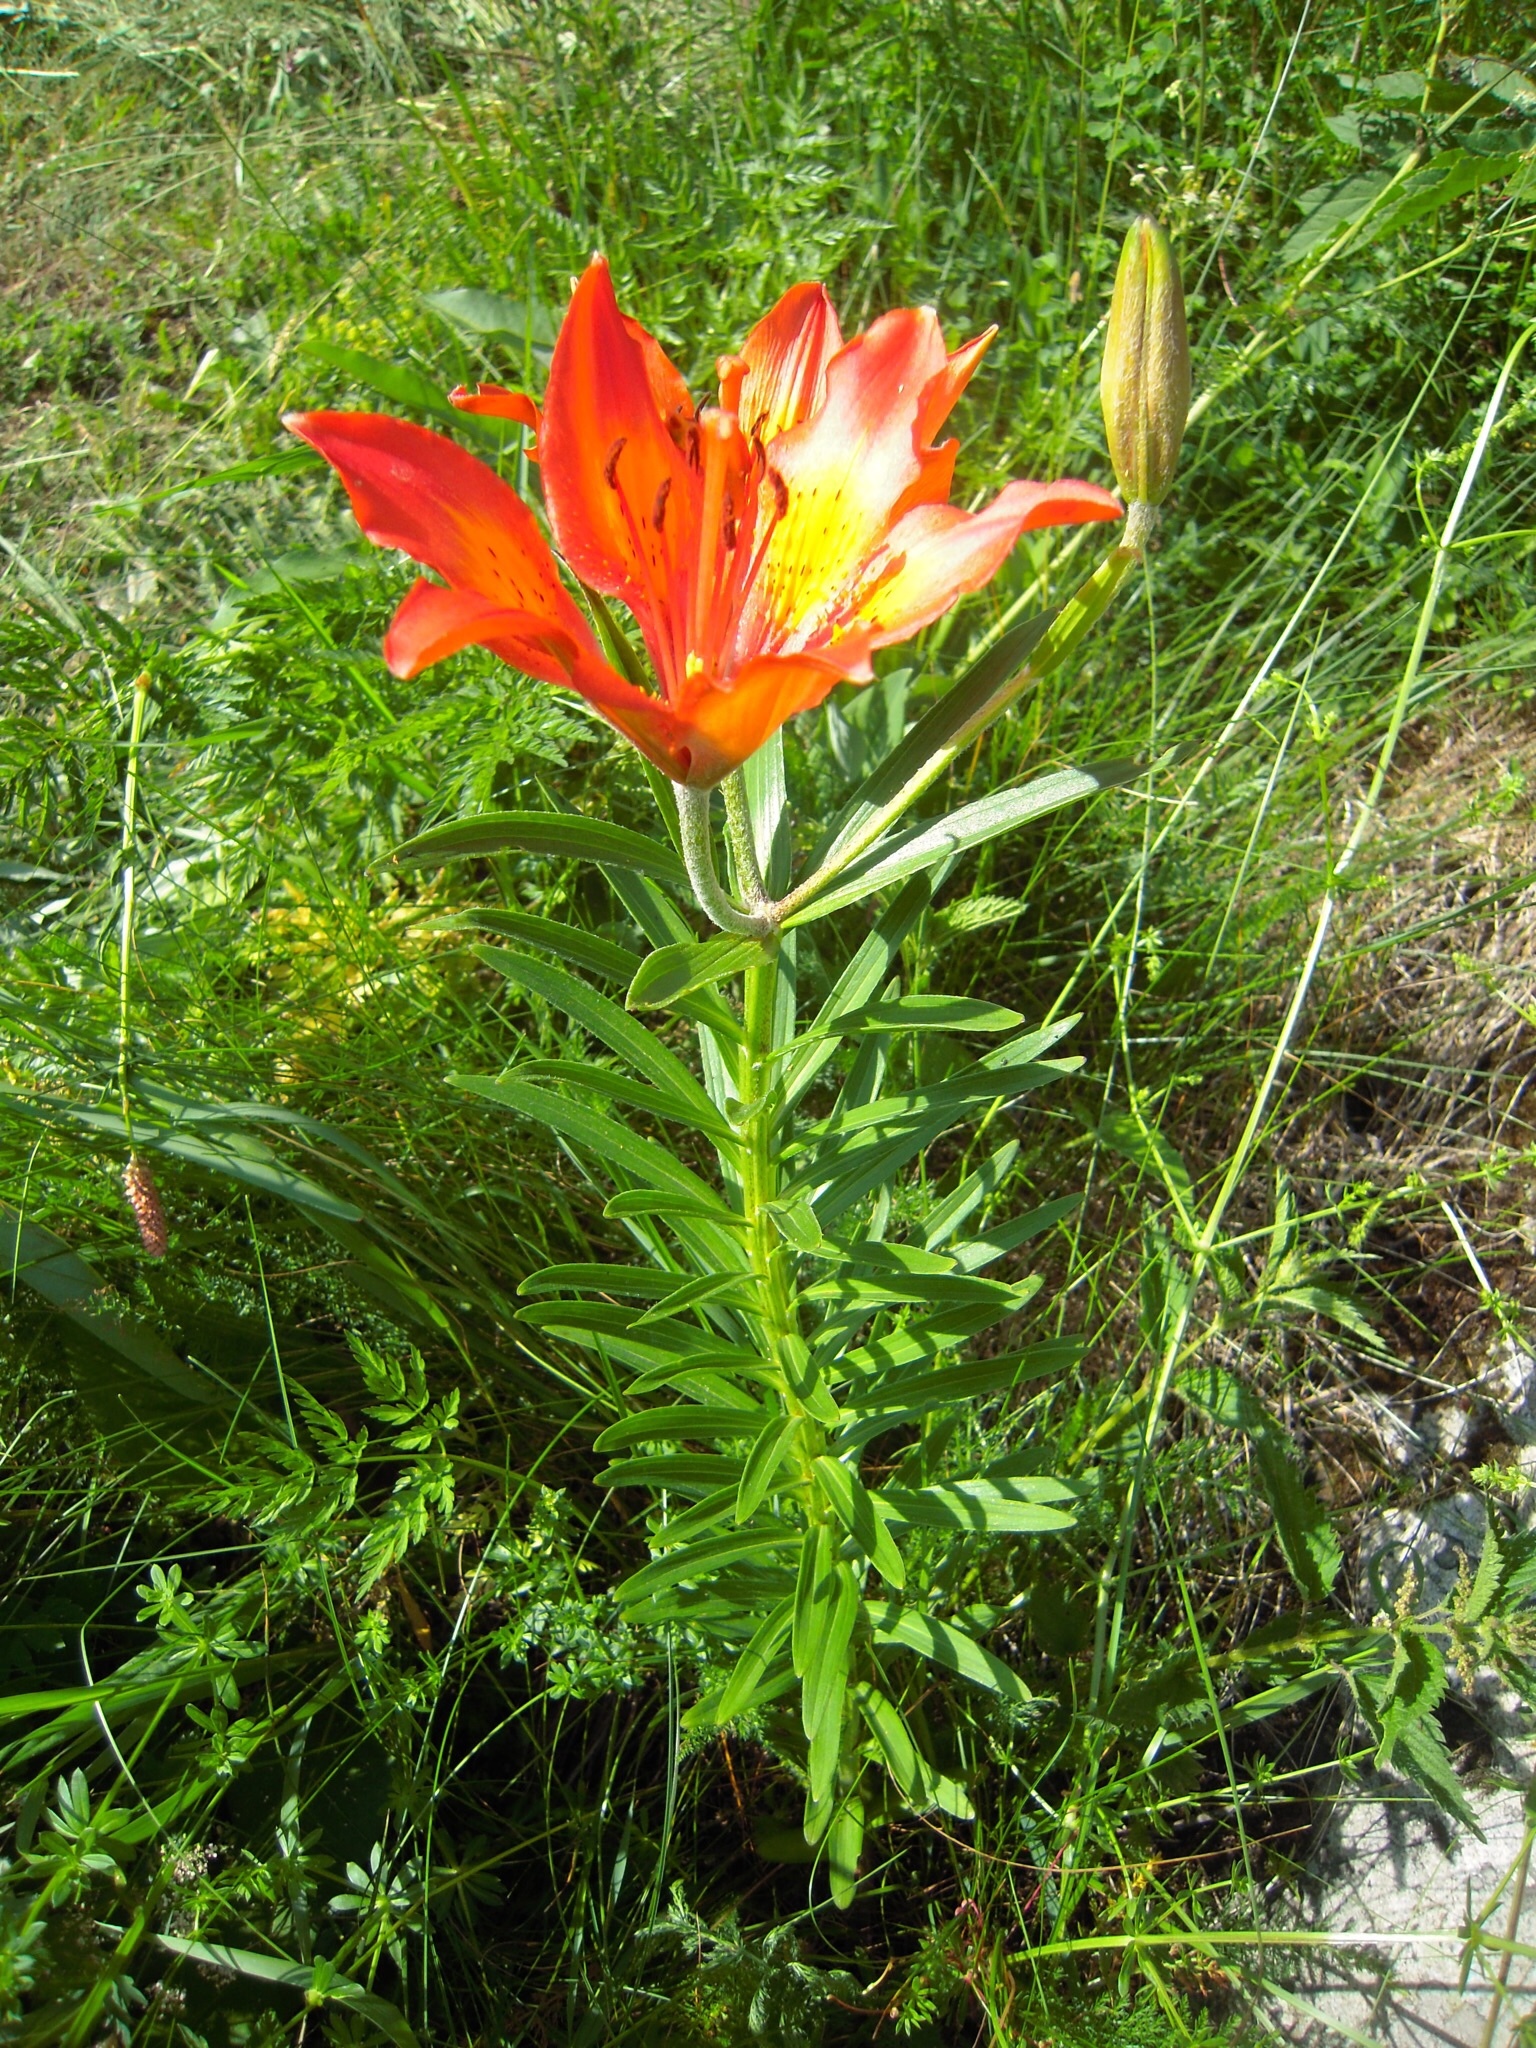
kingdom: Plantae
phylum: Tracheophyta
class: Liliopsida
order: Liliales
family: Liliaceae
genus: Lilium
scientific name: Lilium bulbiferum
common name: Orange lily
